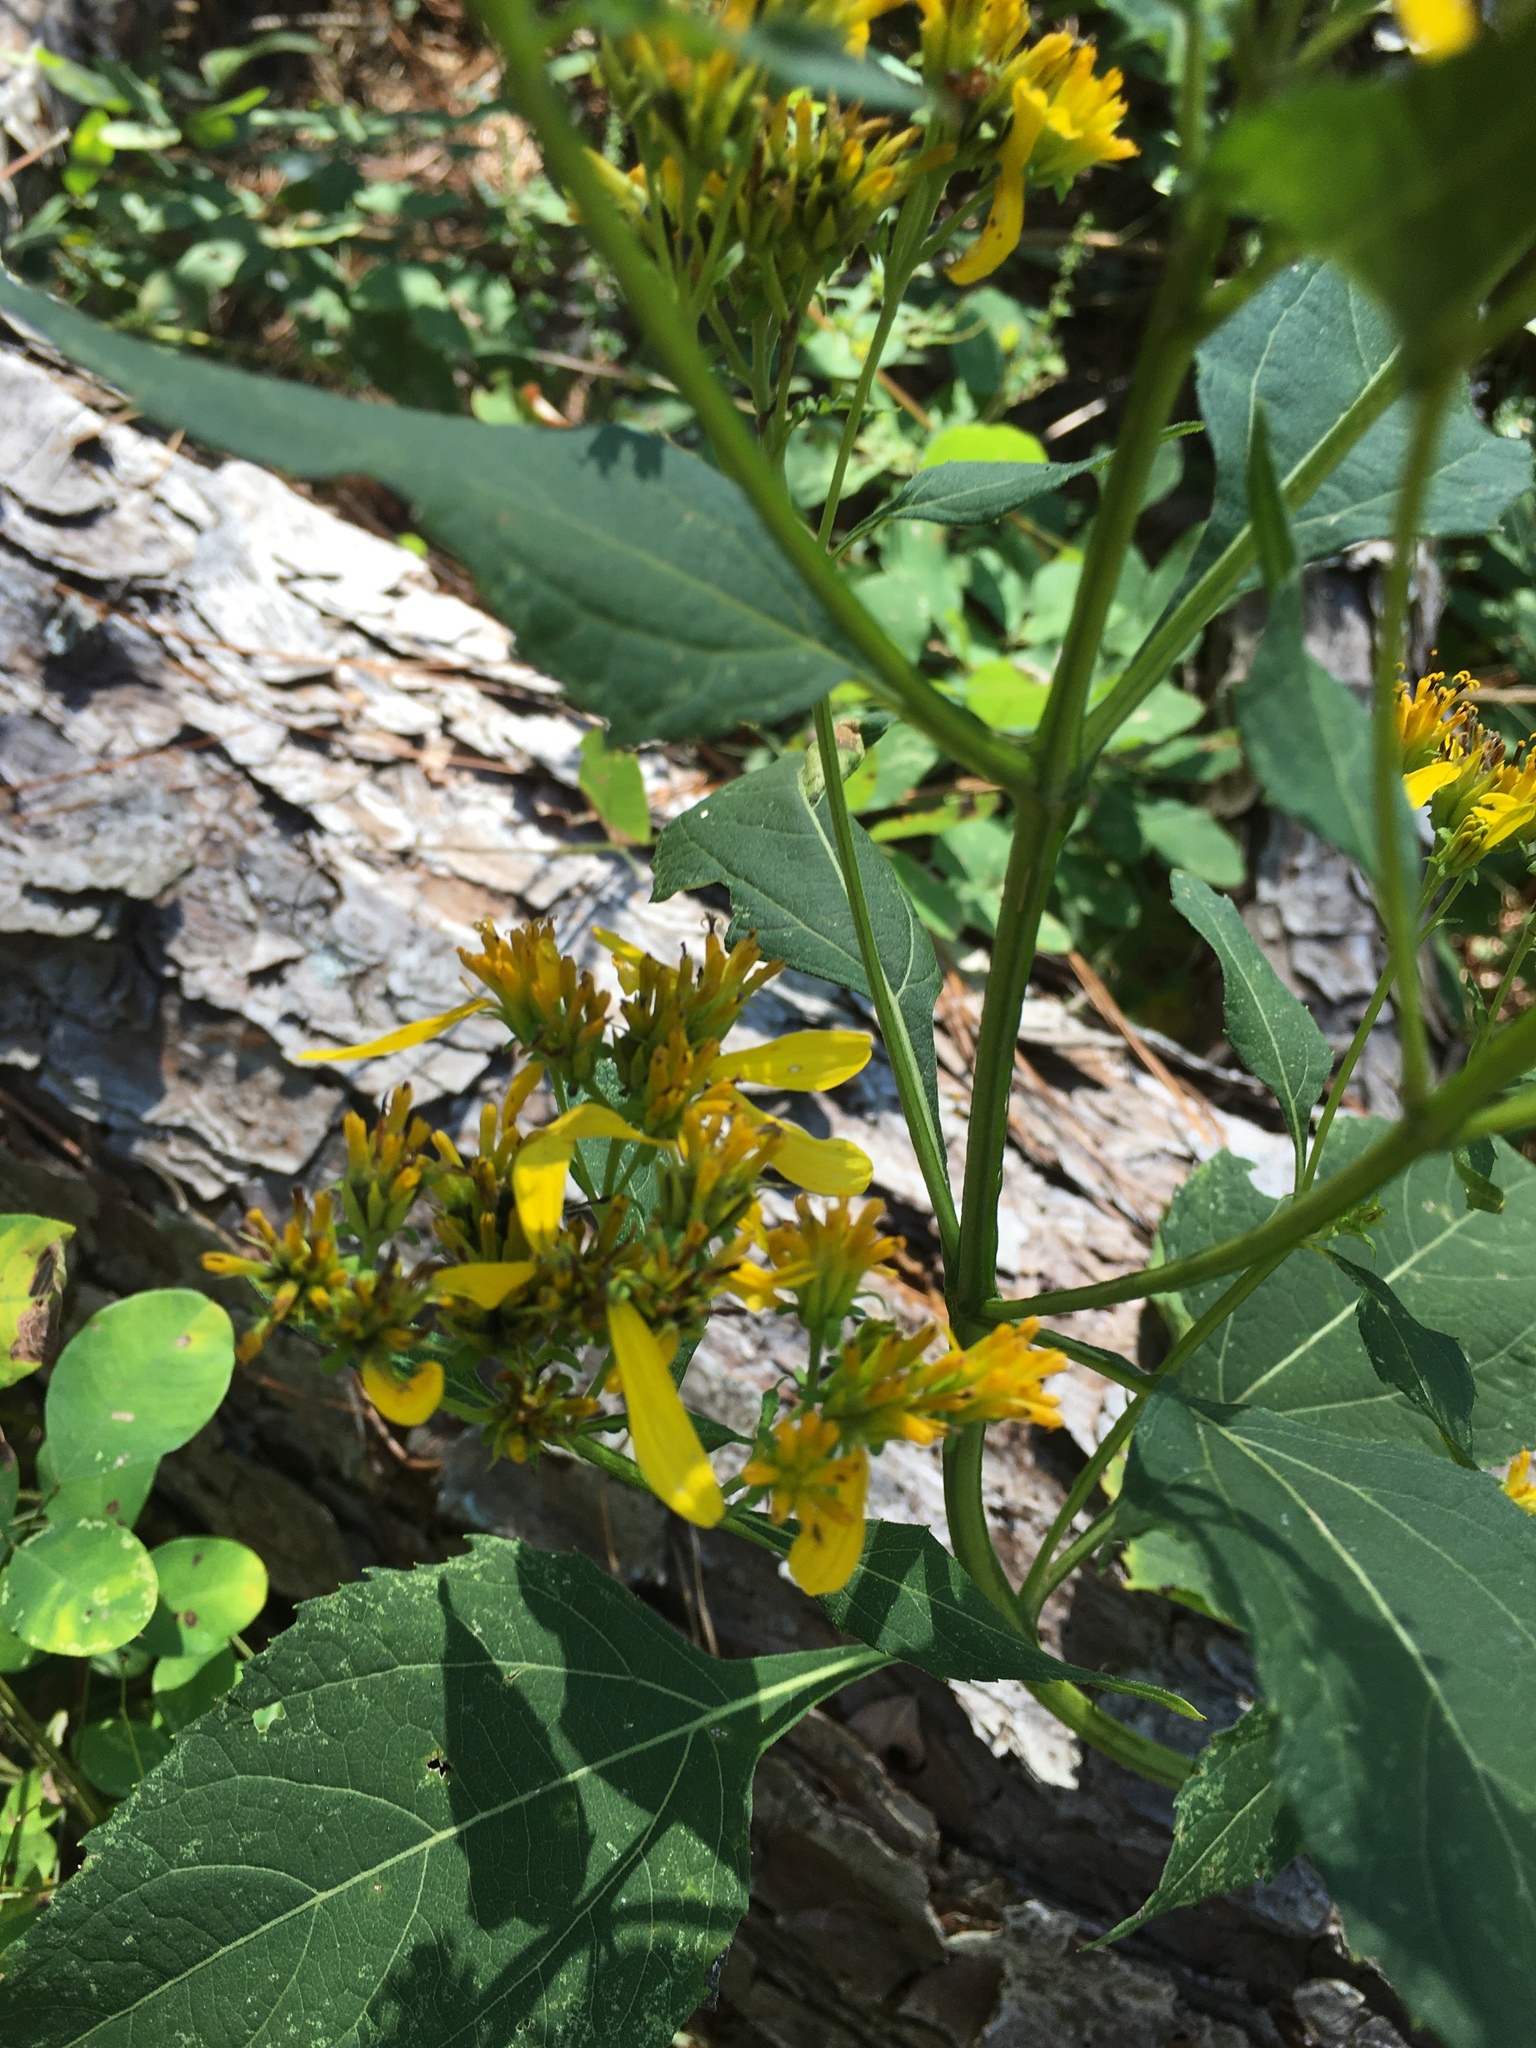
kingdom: Plantae
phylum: Tracheophyta
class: Magnoliopsida
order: Asterales
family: Asteraceae
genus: Verbesina
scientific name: Verbesina occidentalis
